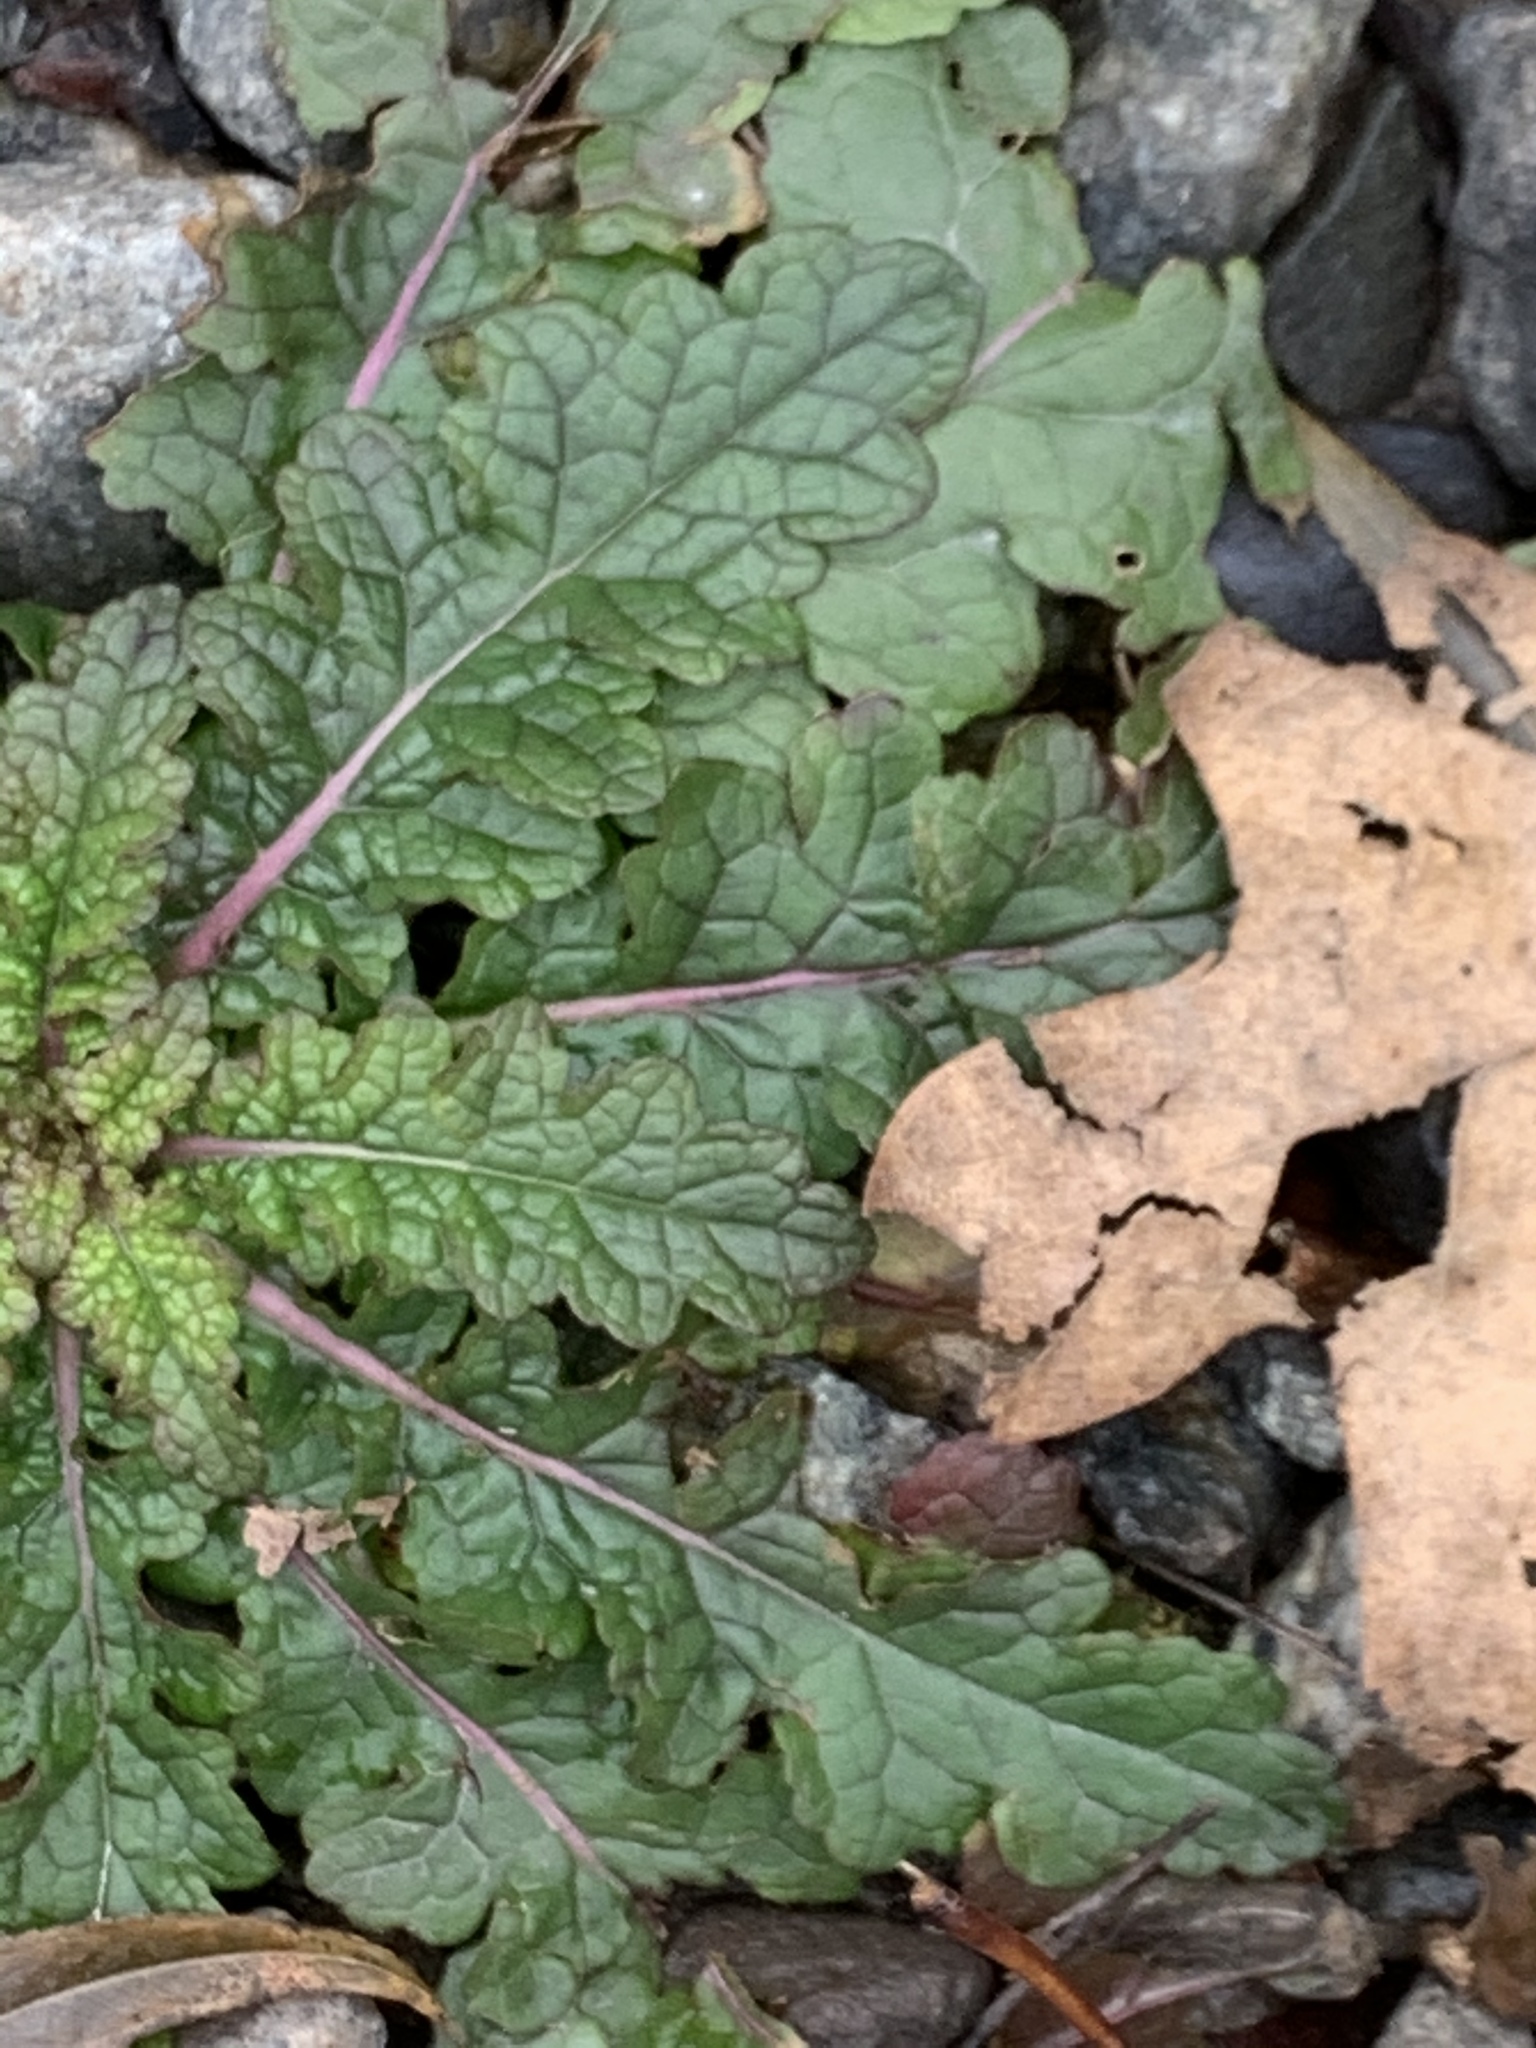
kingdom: Plantae
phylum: Tracheophyta
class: Magnoliopsida
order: Lamiales
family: Scrophulariaceae
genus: Verbascum
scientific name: Verbascum blattaria
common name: Moth mullein
